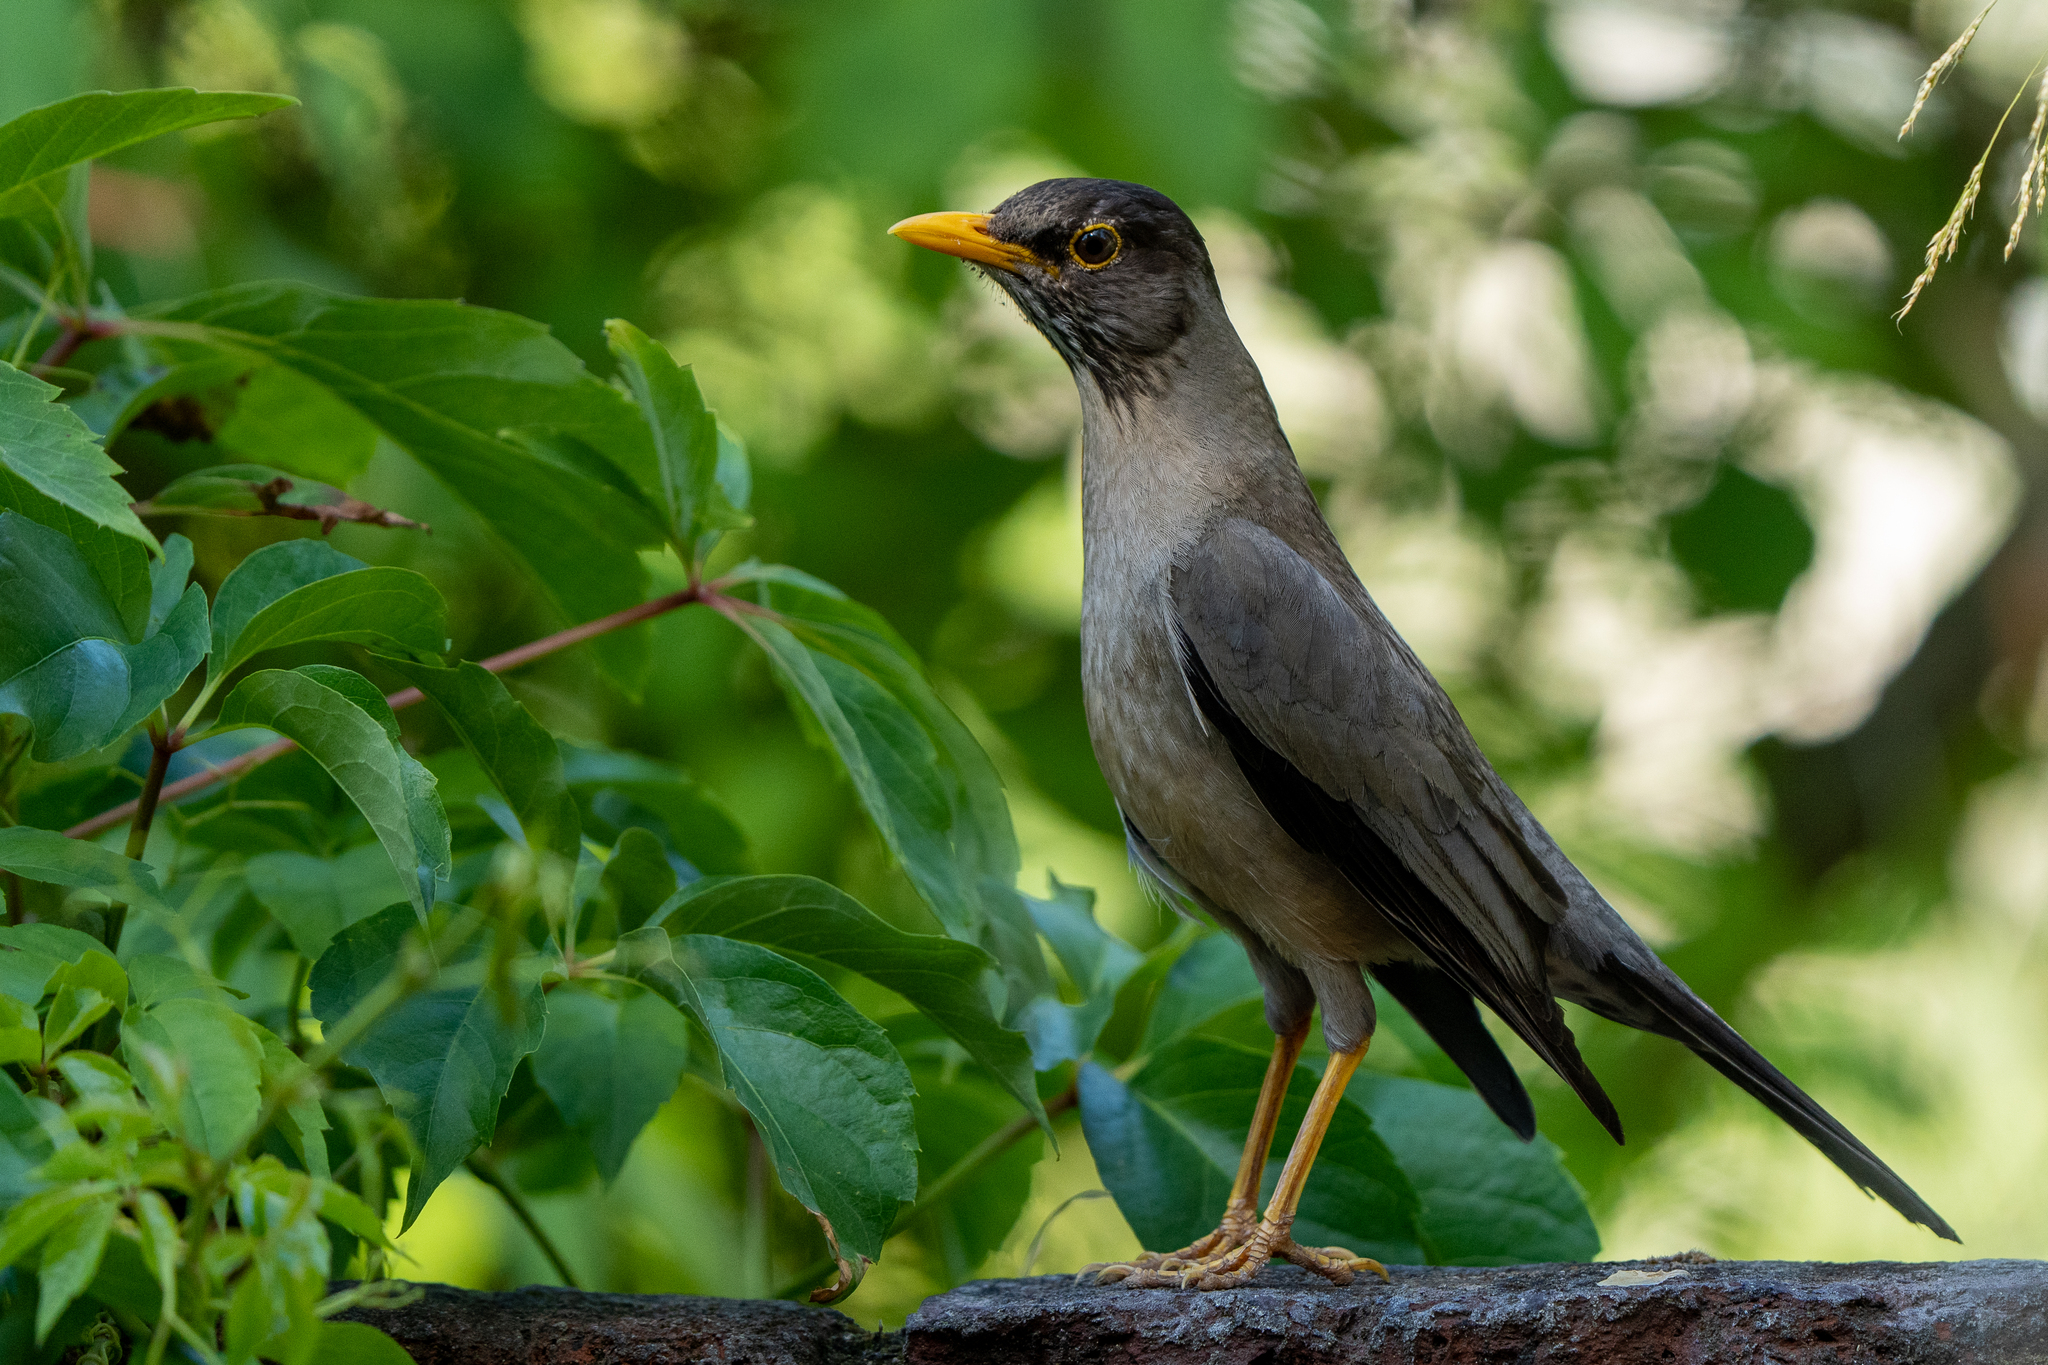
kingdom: Animalia
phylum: Chordata
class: Aves
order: Passeriformes
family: Turdidae
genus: Turdus
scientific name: Turdus falcklandii
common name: Austral thrush
